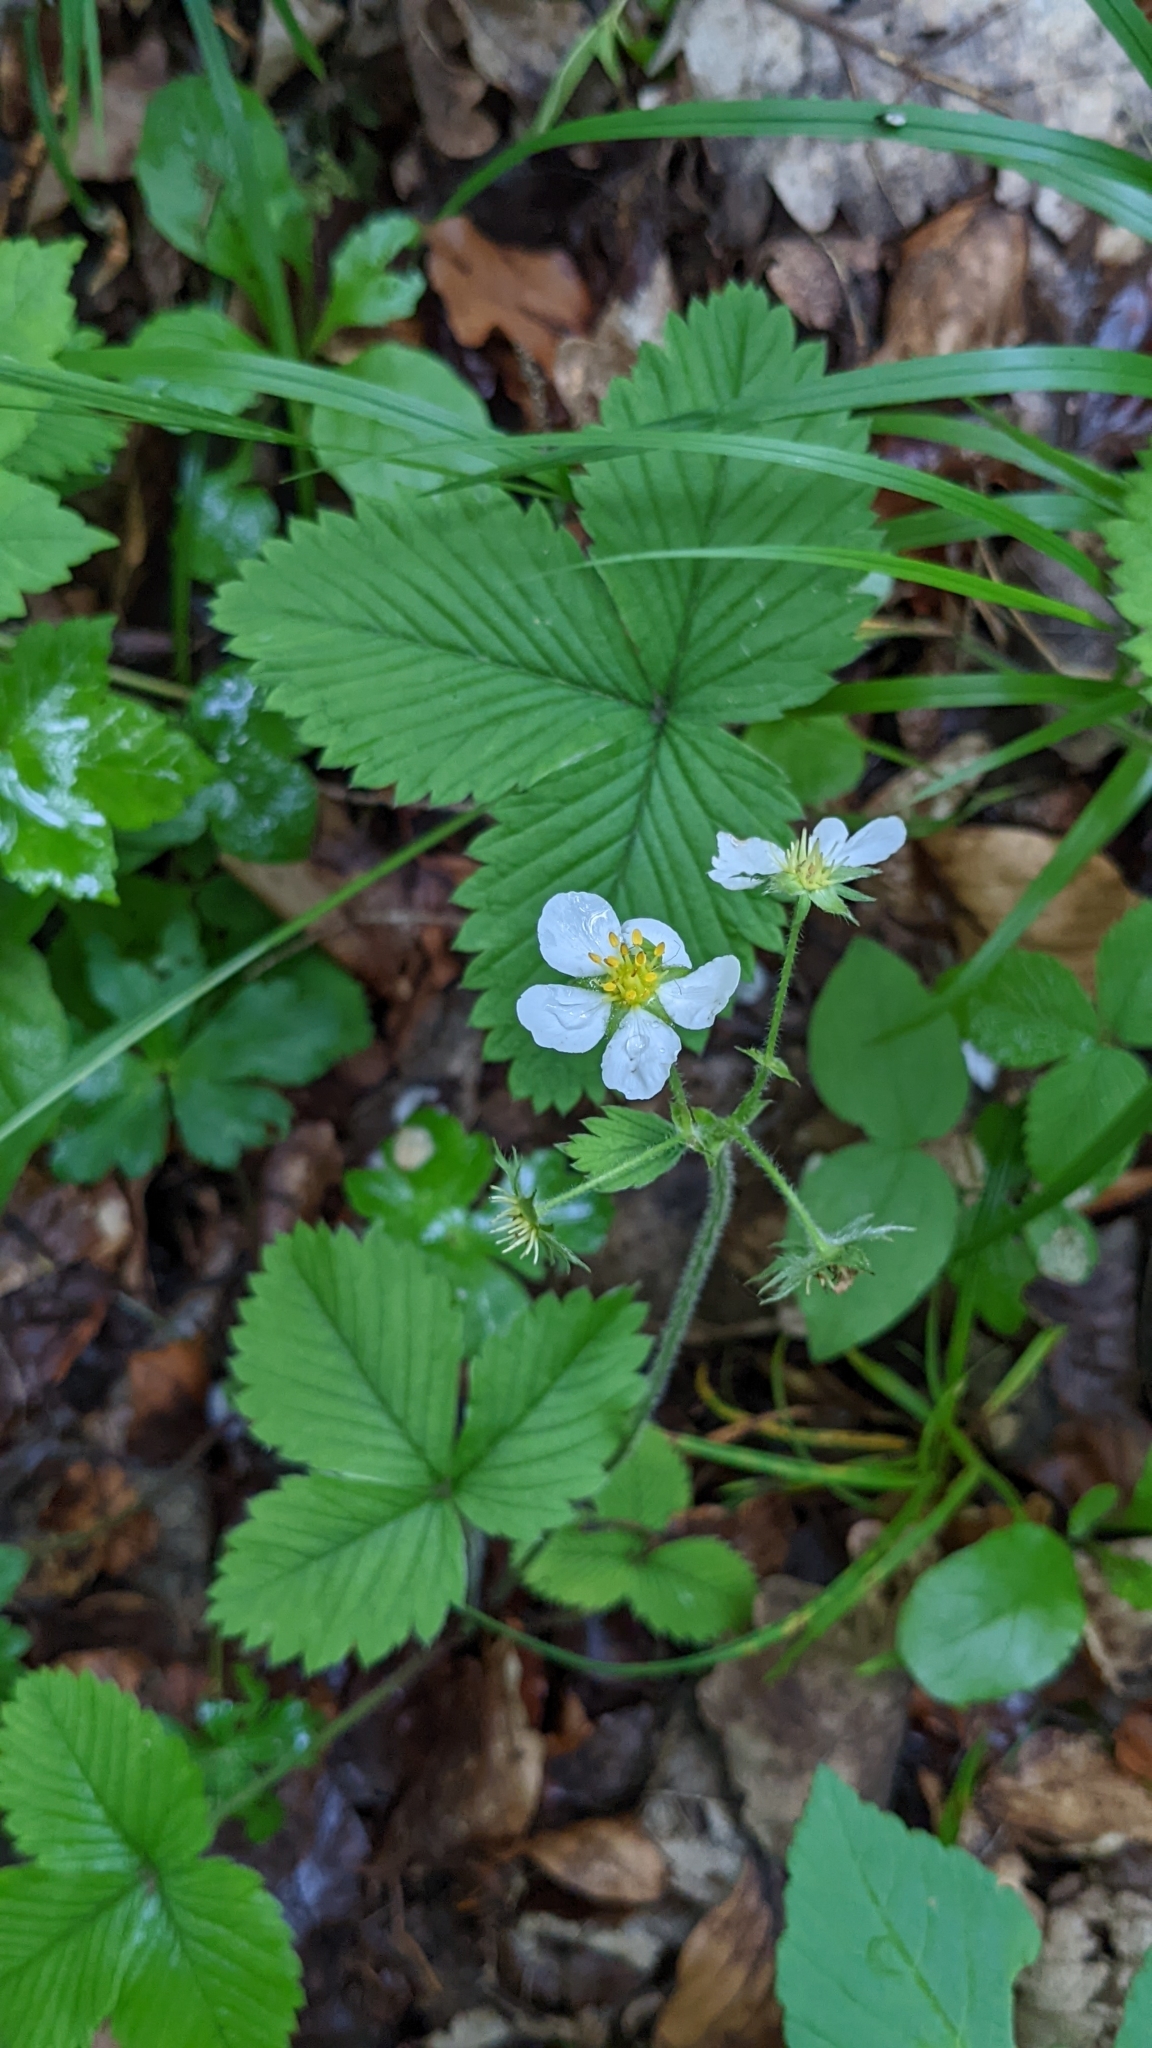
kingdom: Plantae
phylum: Tracheophyta
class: Magnoliopsida
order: Rosales
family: Rosaceae
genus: Fragaria
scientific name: Fragaria vesca
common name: Wild strawberry
